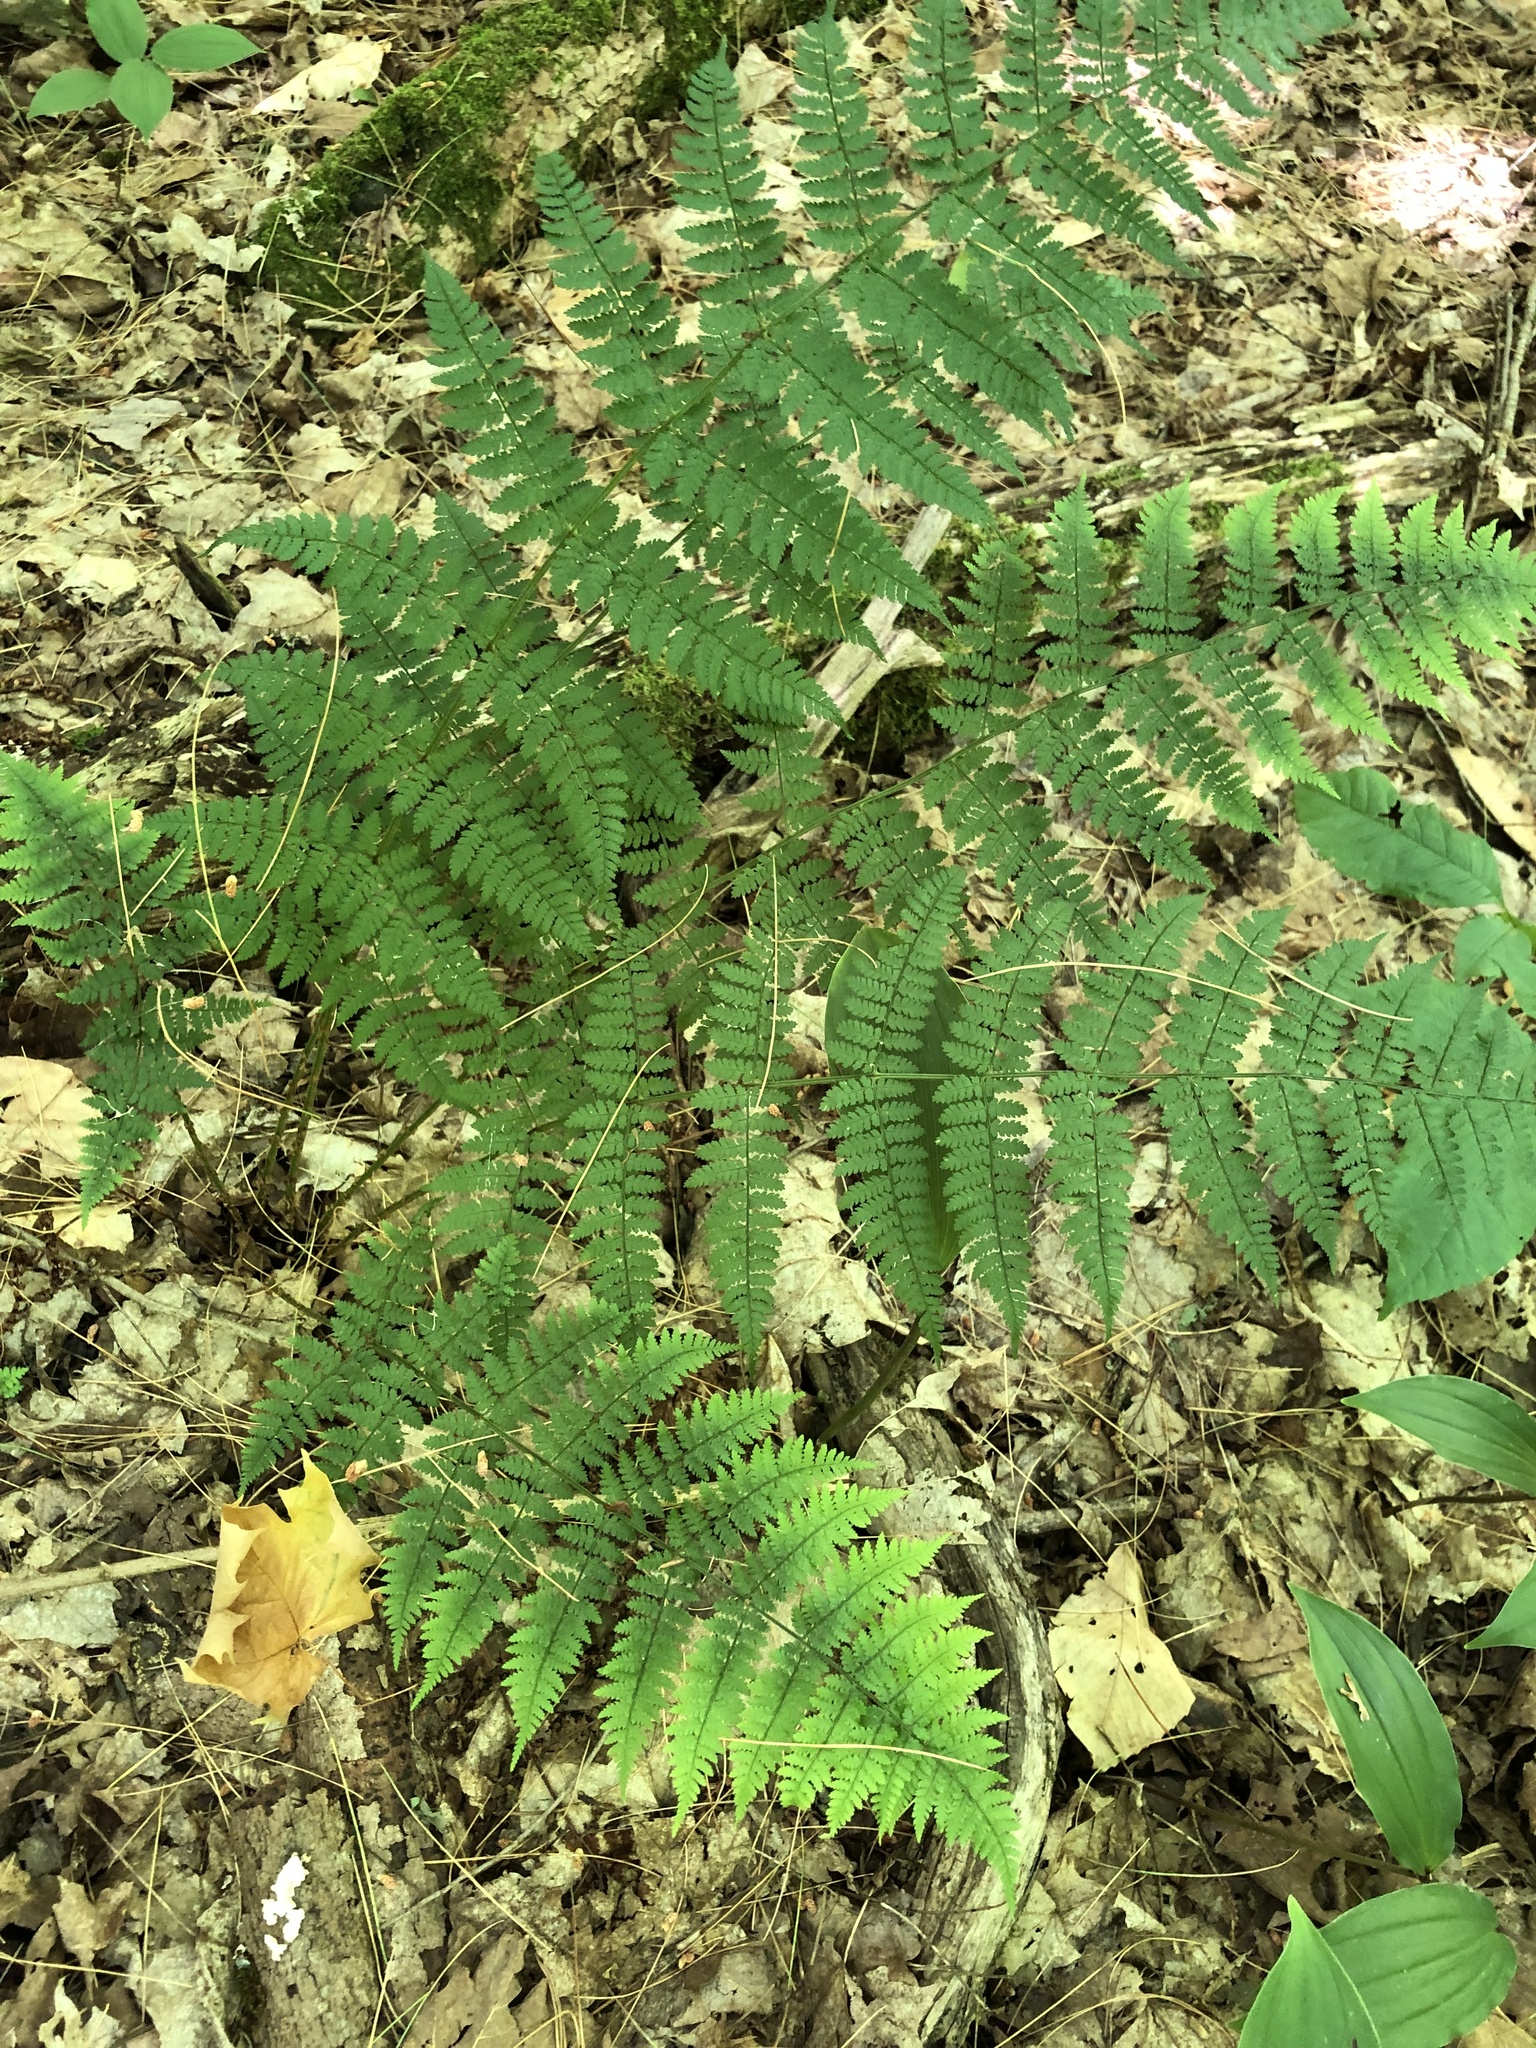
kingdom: Plantae
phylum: Tracheophyta
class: Polypodiopsida
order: Polypodiales
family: Dryopteridaceae
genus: Dryopteris
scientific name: Dryopteris intermedia
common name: Evergreen wood fern
